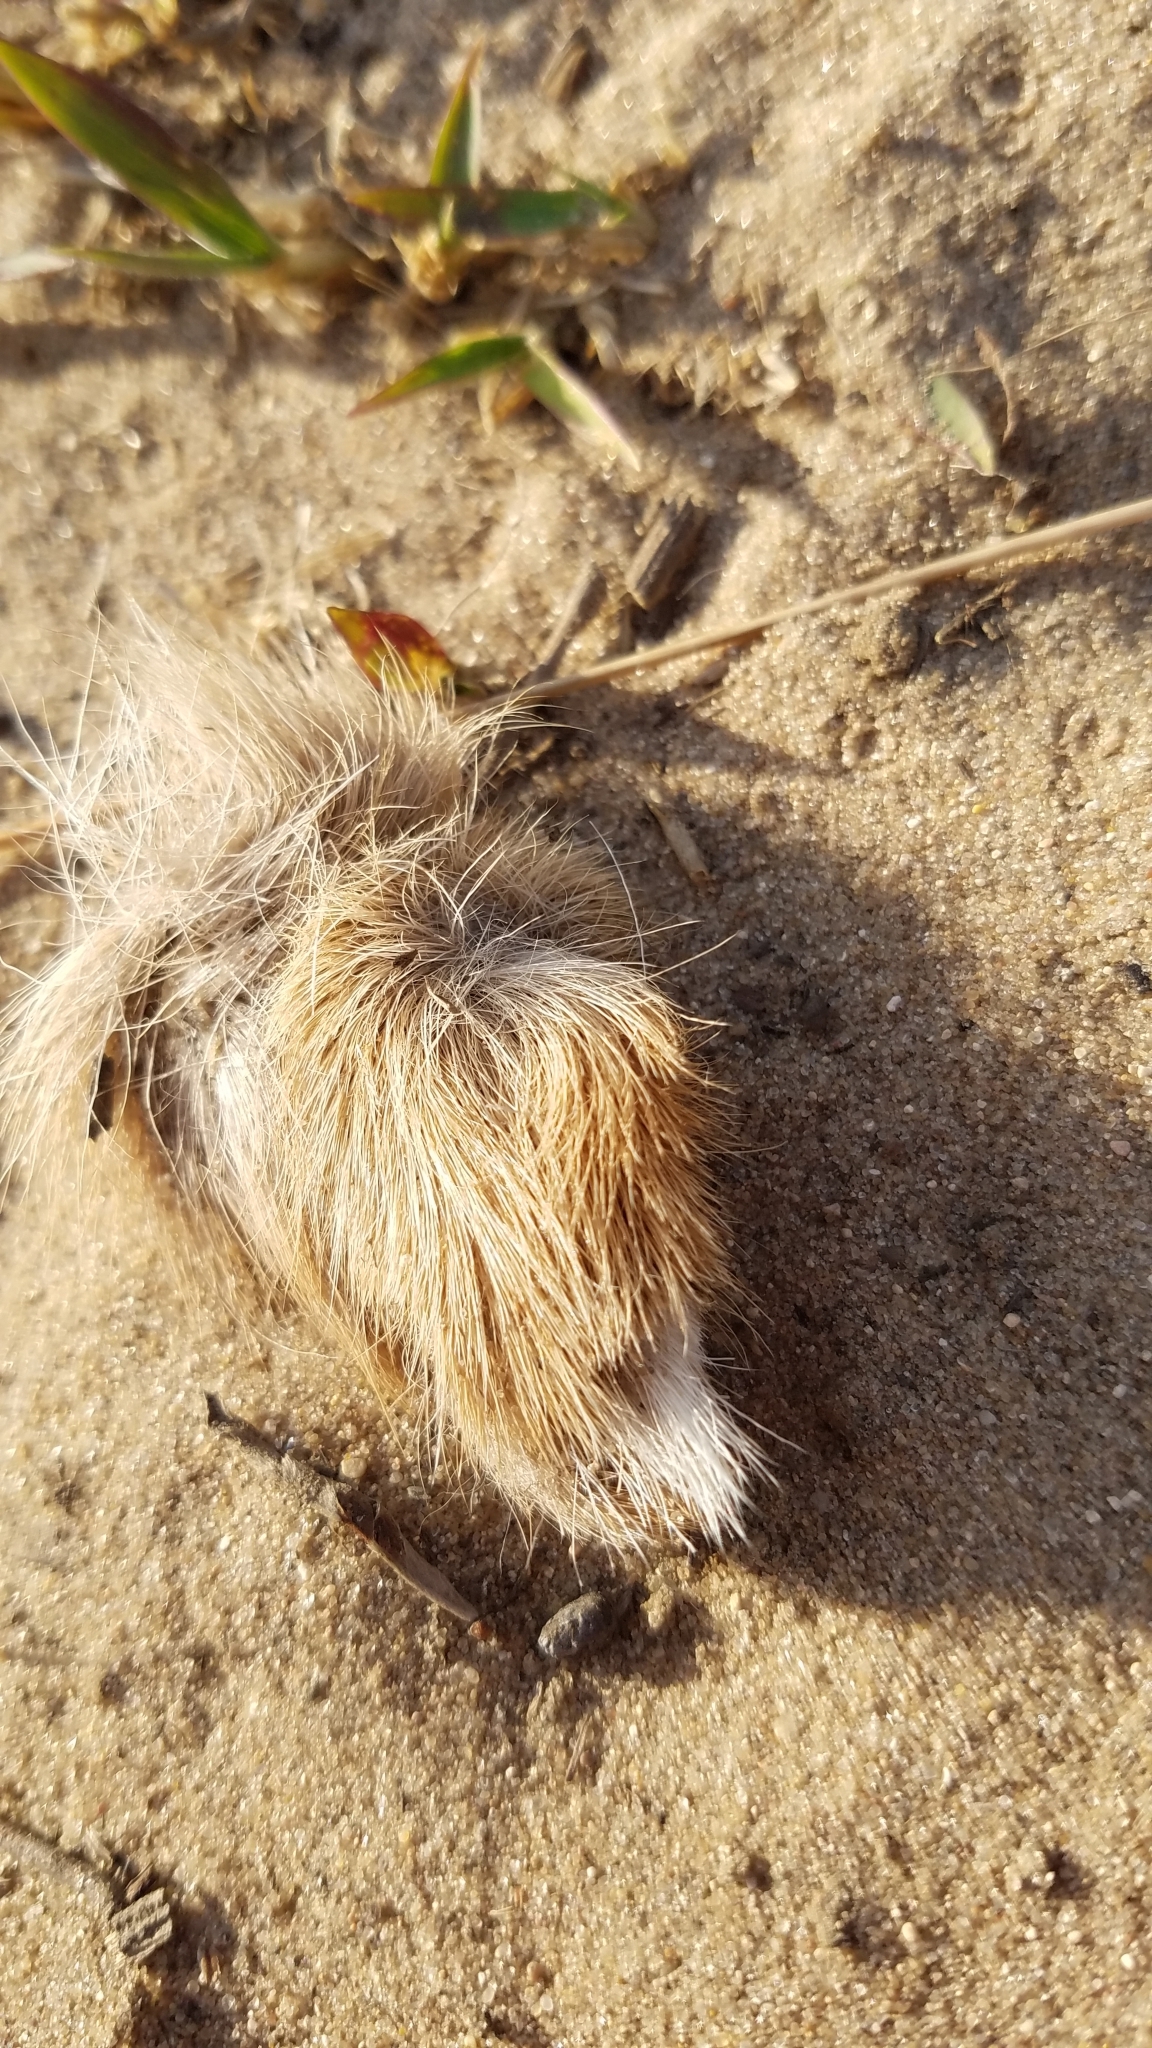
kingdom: Animalia
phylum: Chordata
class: Mammalia
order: Artiodactyla
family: Cervidae
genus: Odocoileus
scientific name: Odocoileus virginianus
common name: White-tailed deer
